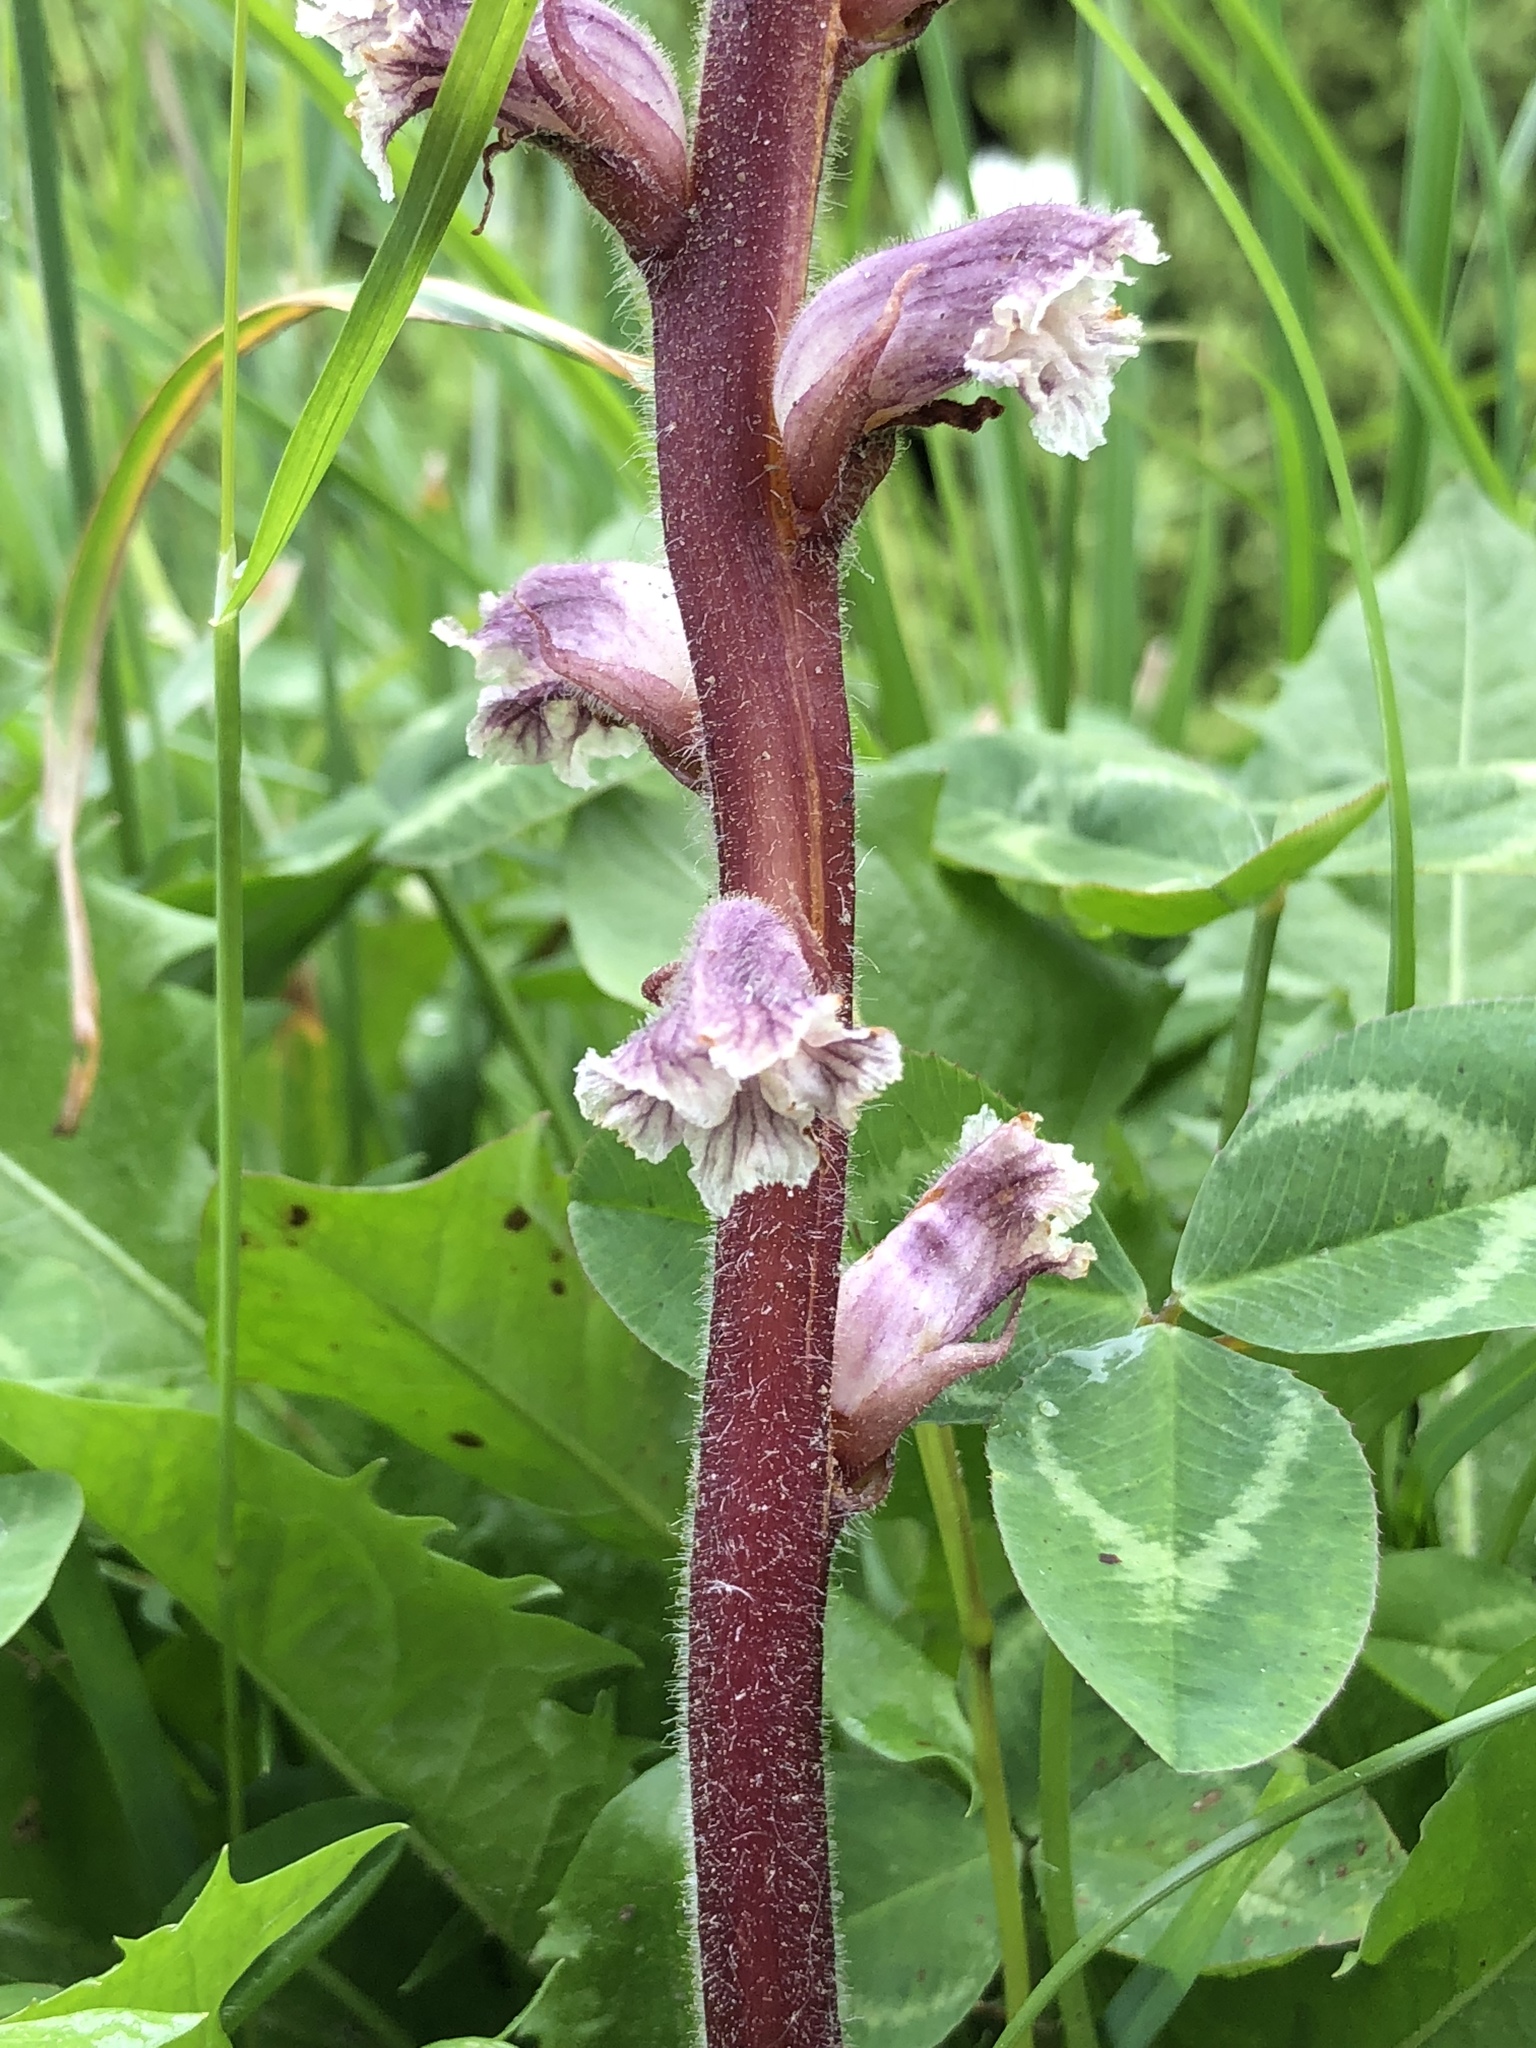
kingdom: Plantae
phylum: Tracheophyta
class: Magnoliopsida
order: Lamiales
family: Orobanchaceae
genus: Orobanche
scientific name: Orobanche minor
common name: Common broomrape
